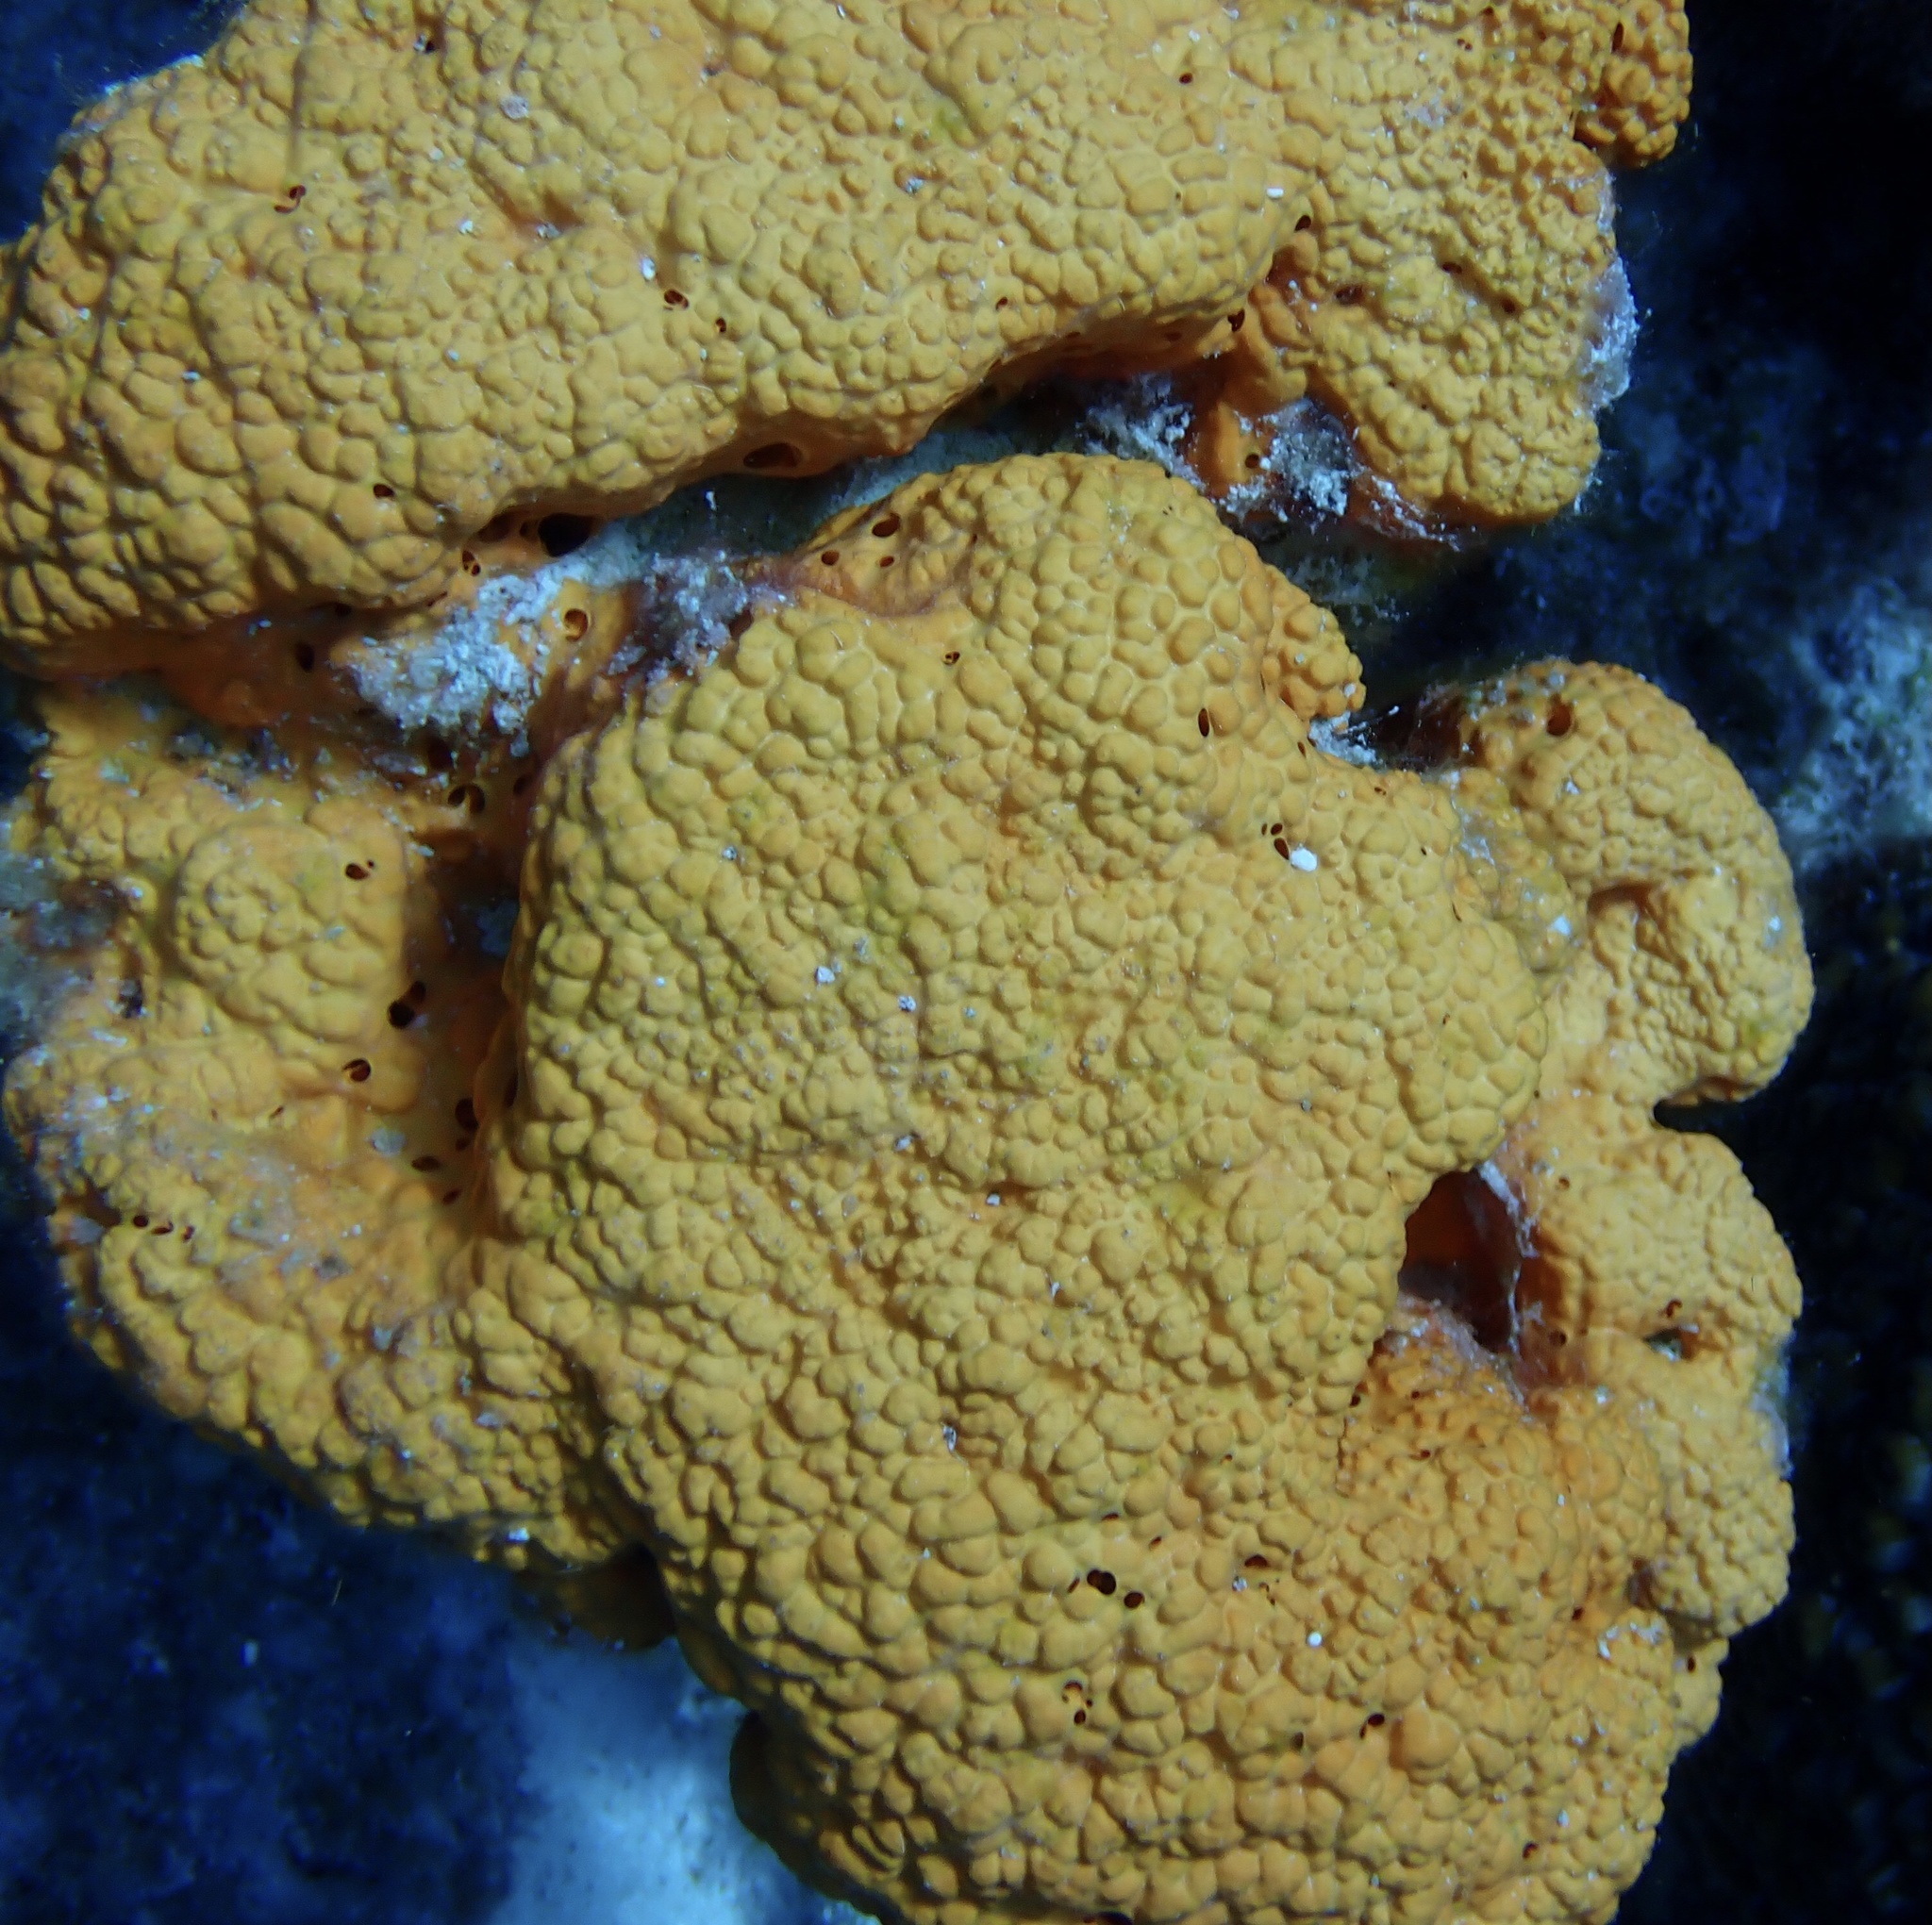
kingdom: Animalia
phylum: Porifera
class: Demospongiae
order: Agelasida
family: Agelasidae
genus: Agelas
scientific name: Agelas citrina
